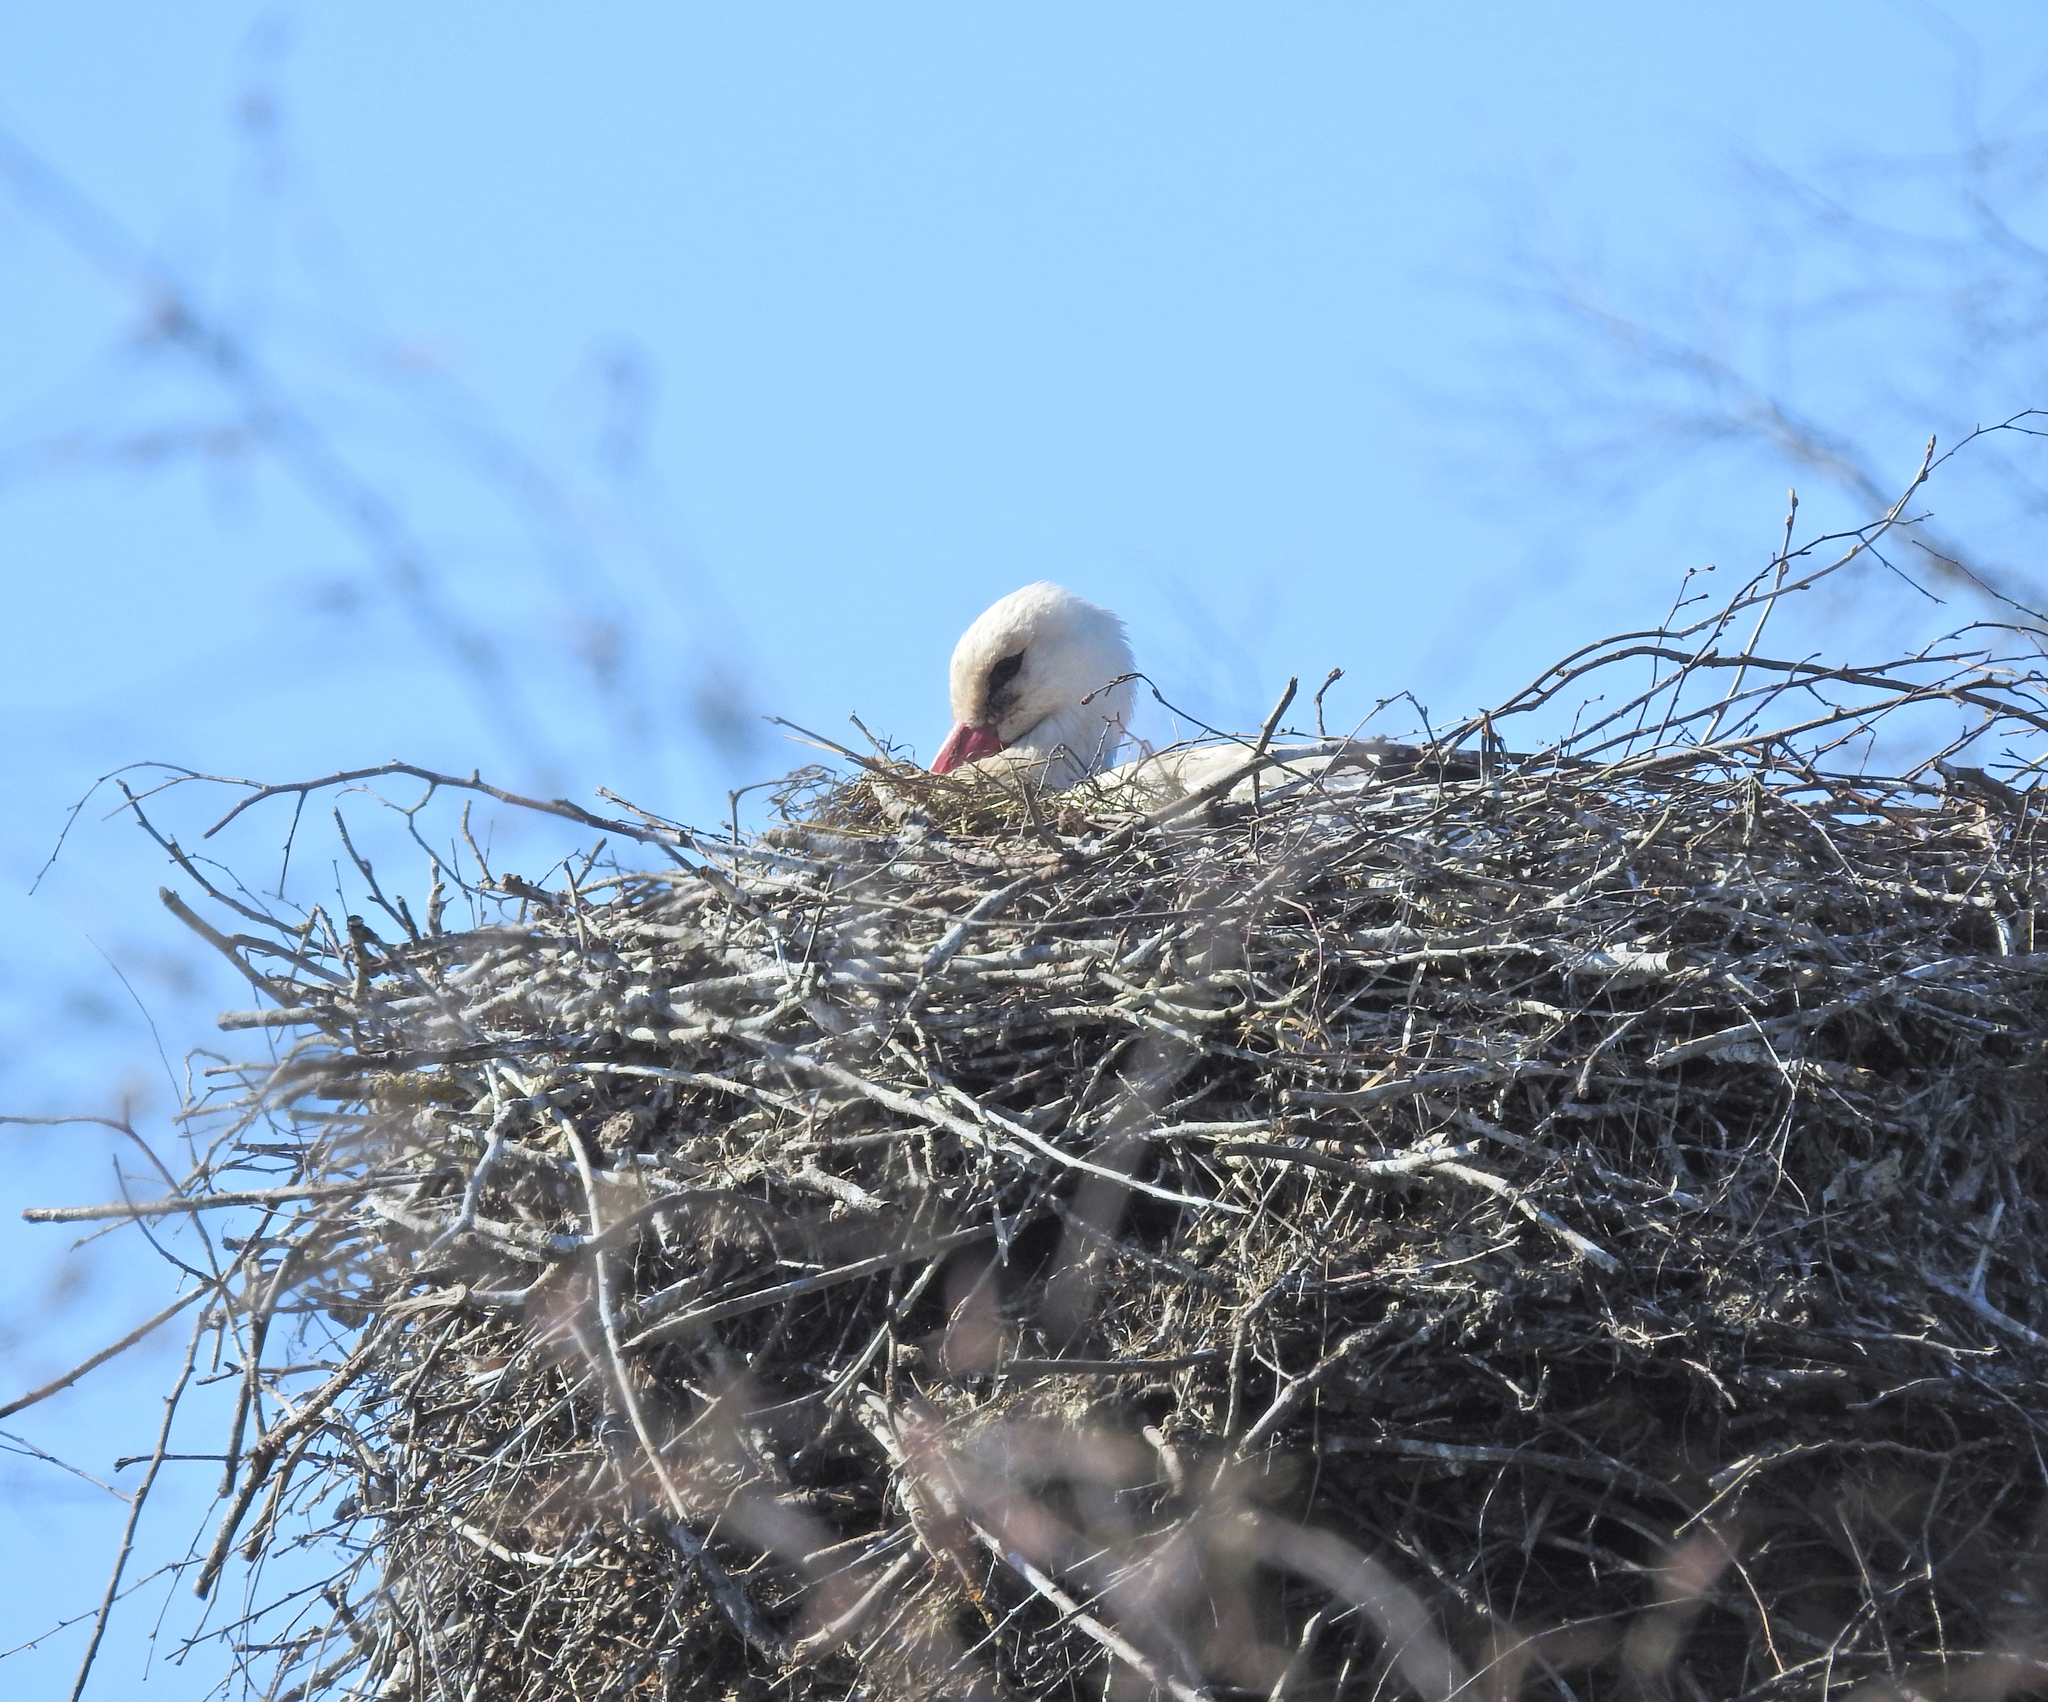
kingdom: Animalia
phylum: Chordata
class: Aves
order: Ciconiiformes
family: Ciconiidae
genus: Ciconia
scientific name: Ciconia ciconia
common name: White stork
